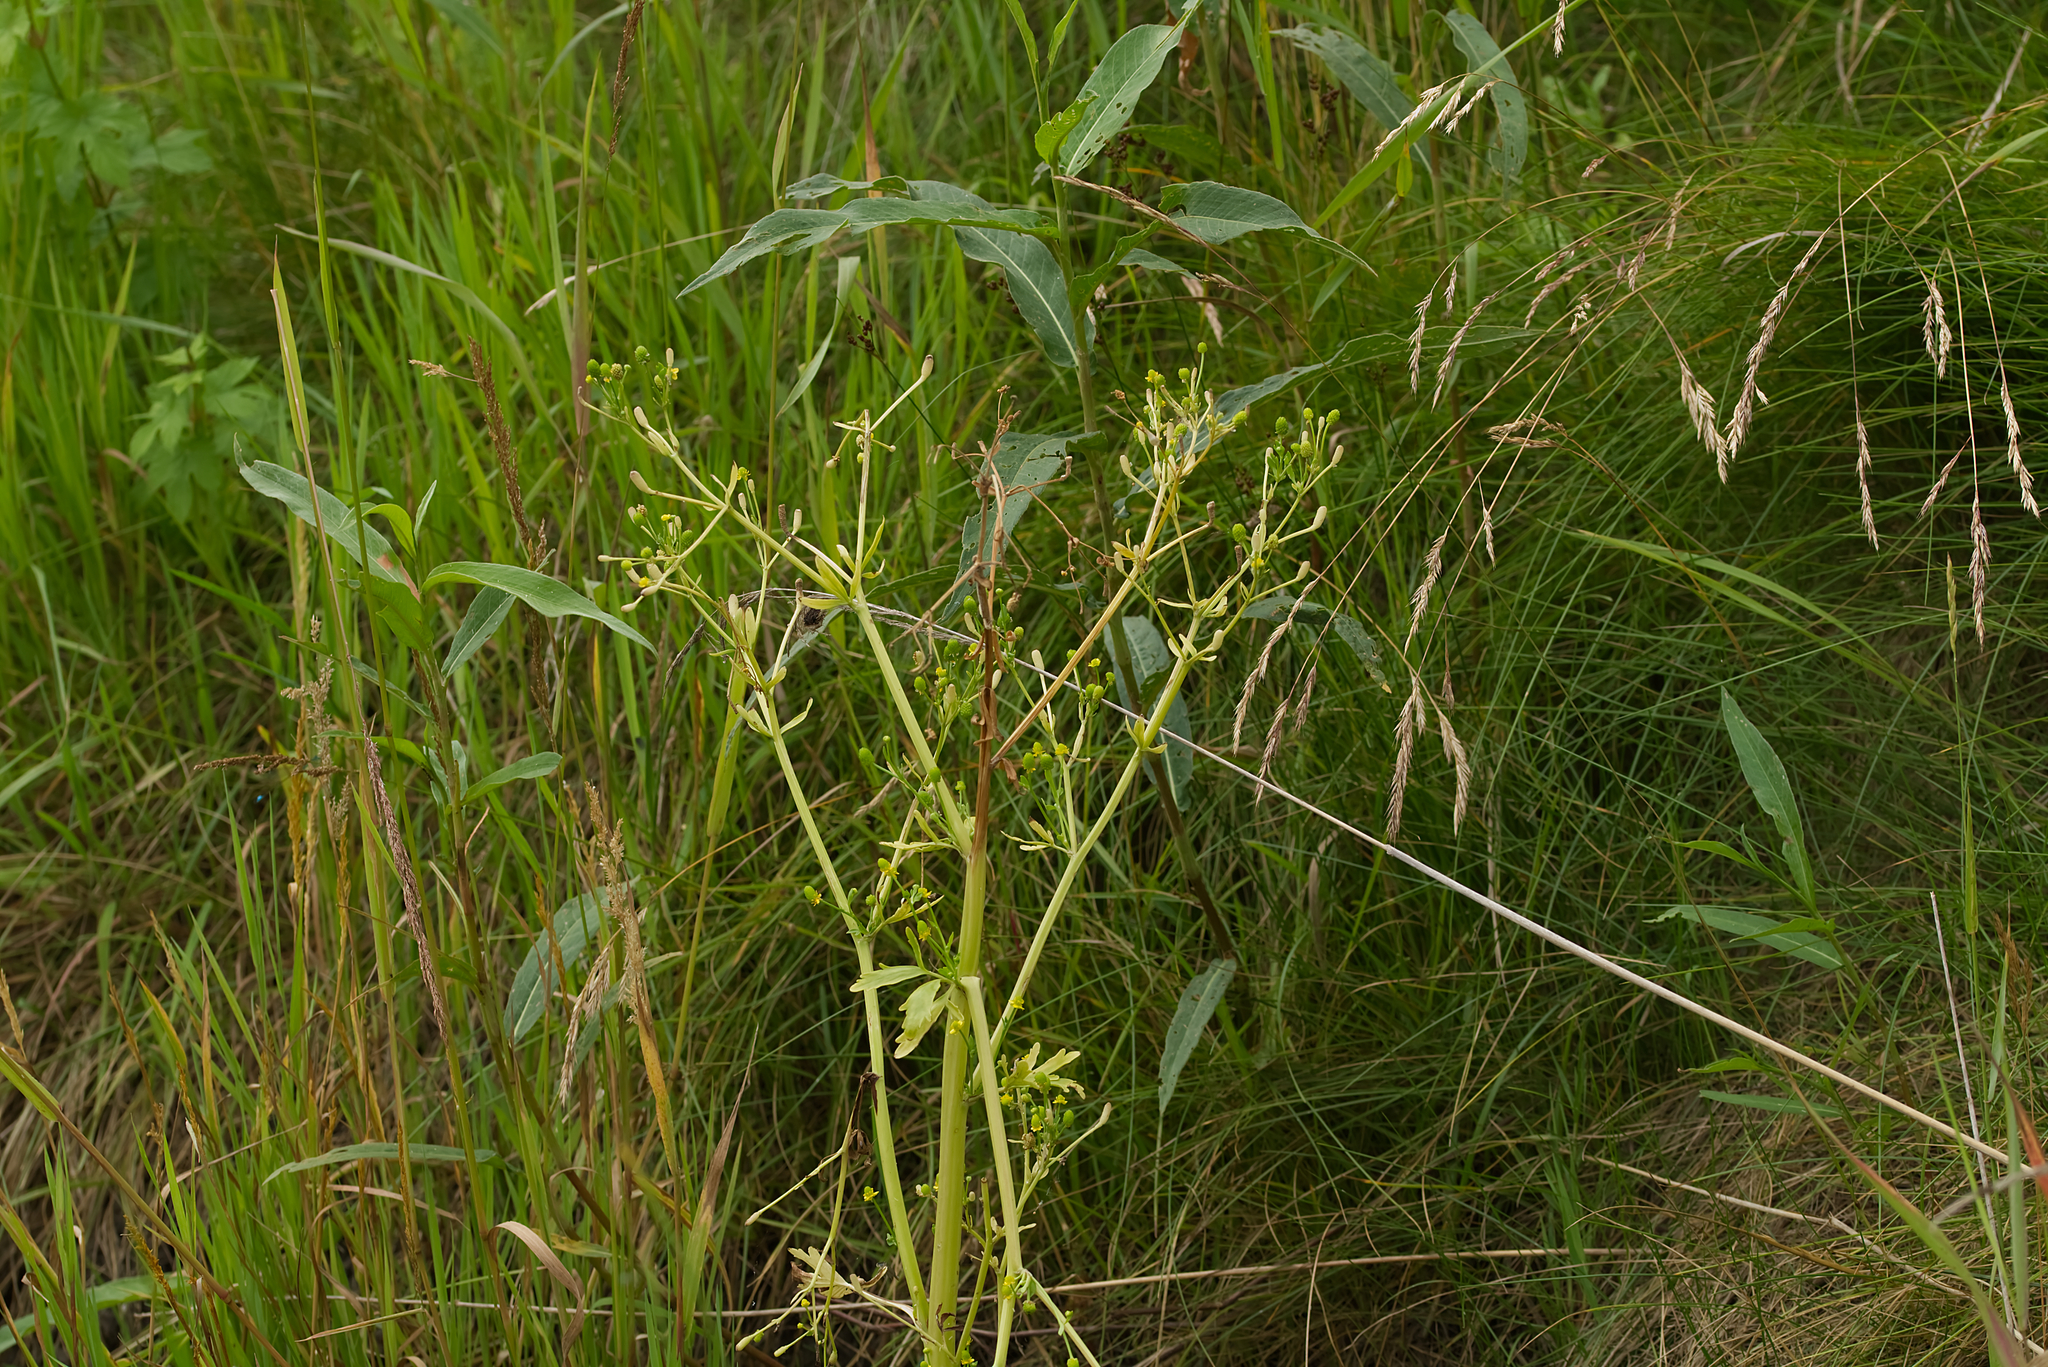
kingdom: Plantae
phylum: Tracheophyta
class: Magnoliopsida
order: Ranunculales
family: Ranunculaceae
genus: Ranunculus
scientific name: Ranunculus sceleratus
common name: Celery-leaved buttercup
